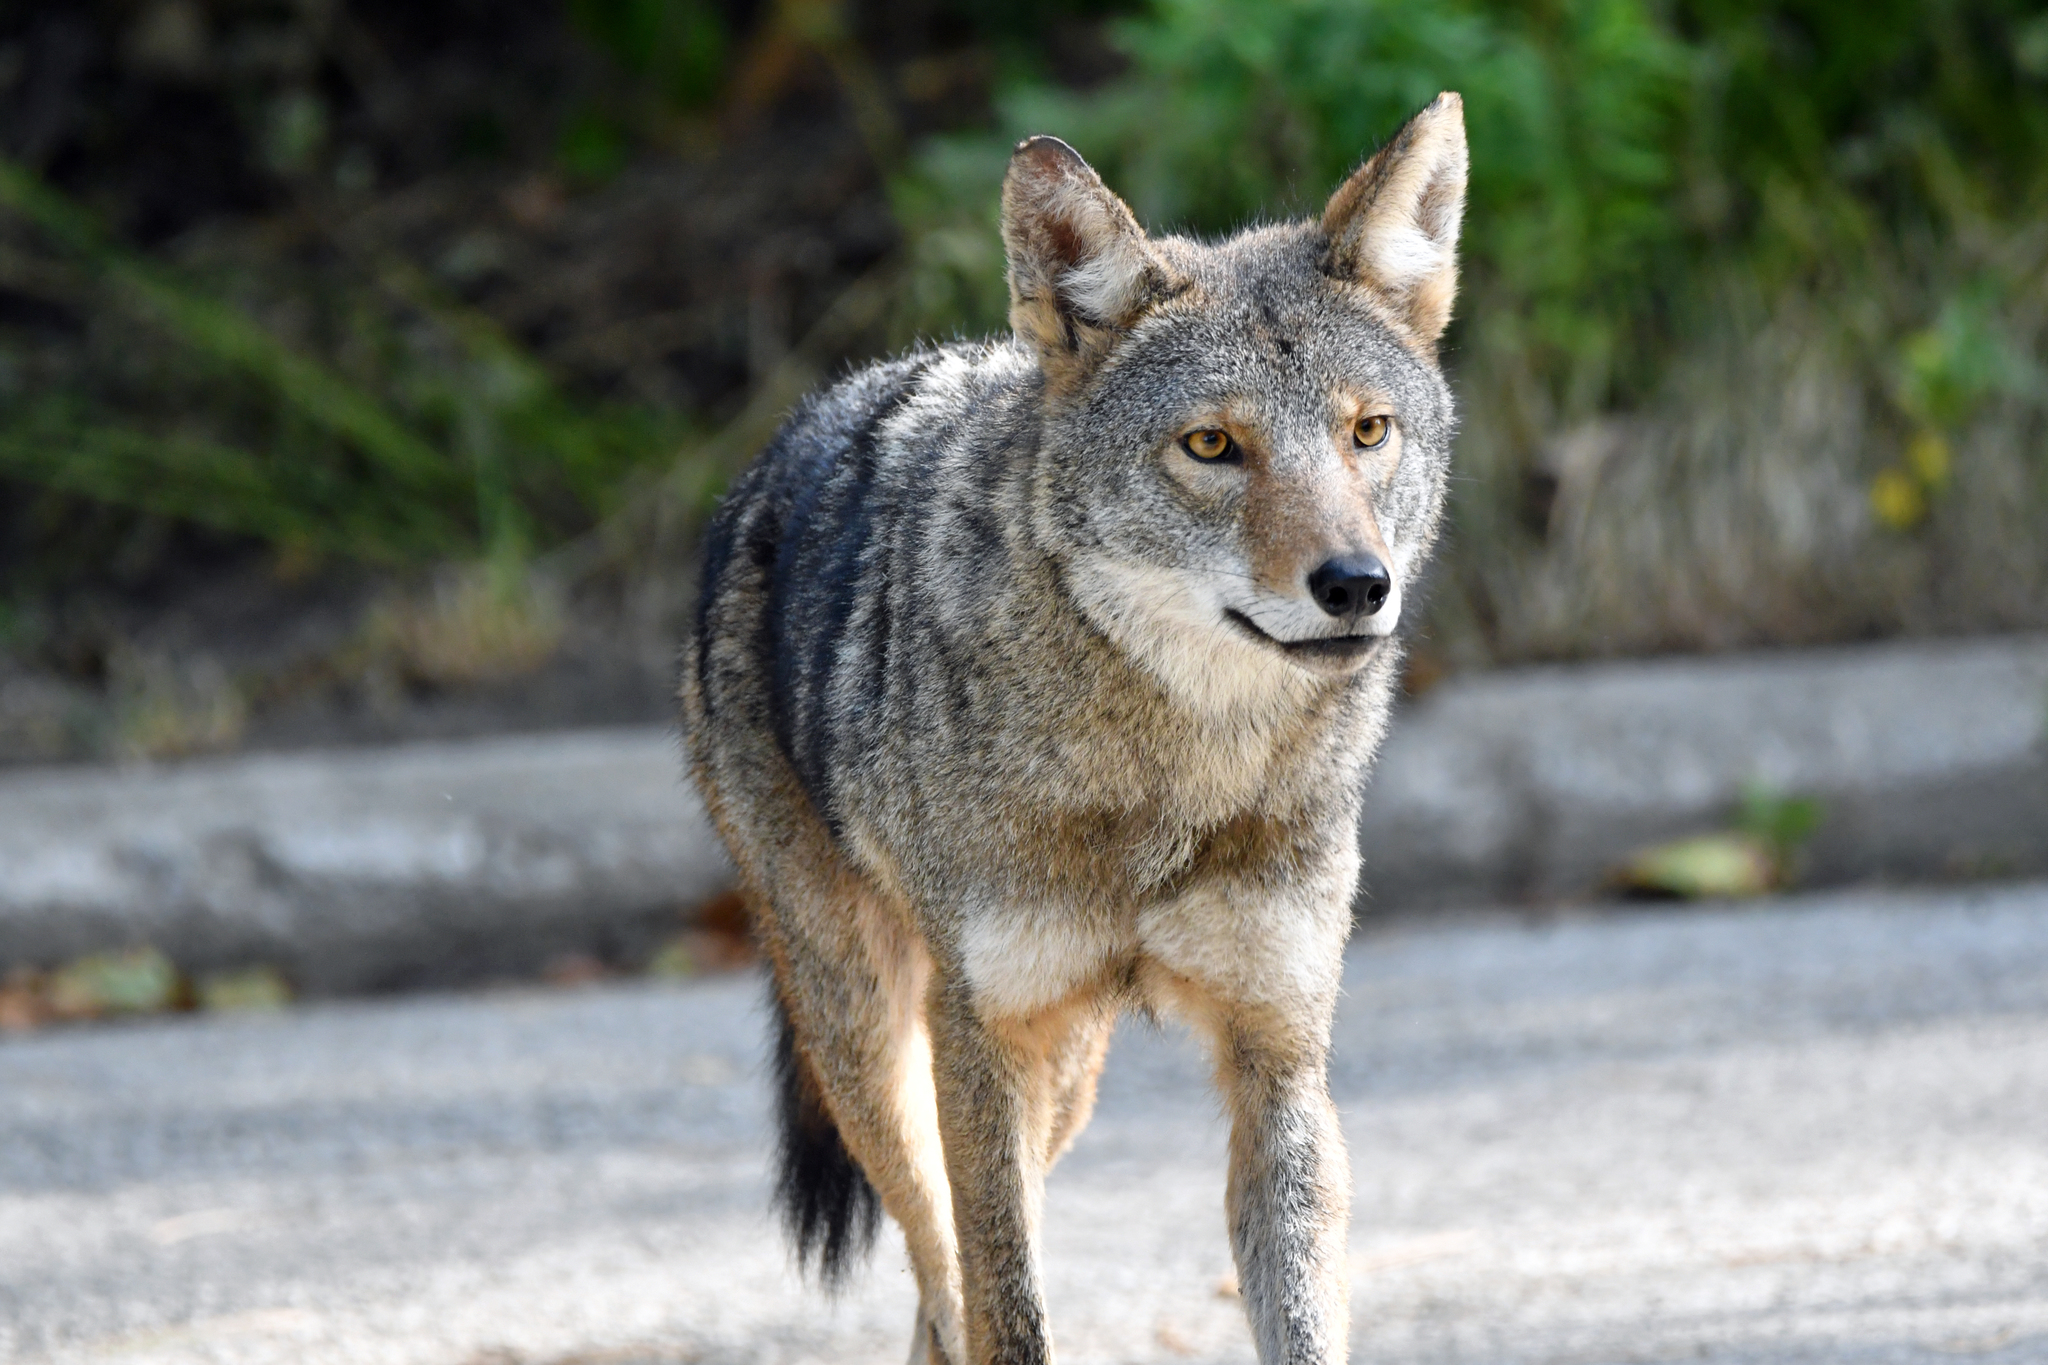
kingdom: Animalia
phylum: Chordata
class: Mammalia
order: Carnivora
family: Canidae
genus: Canis
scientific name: Canis latrans
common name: Coyote
